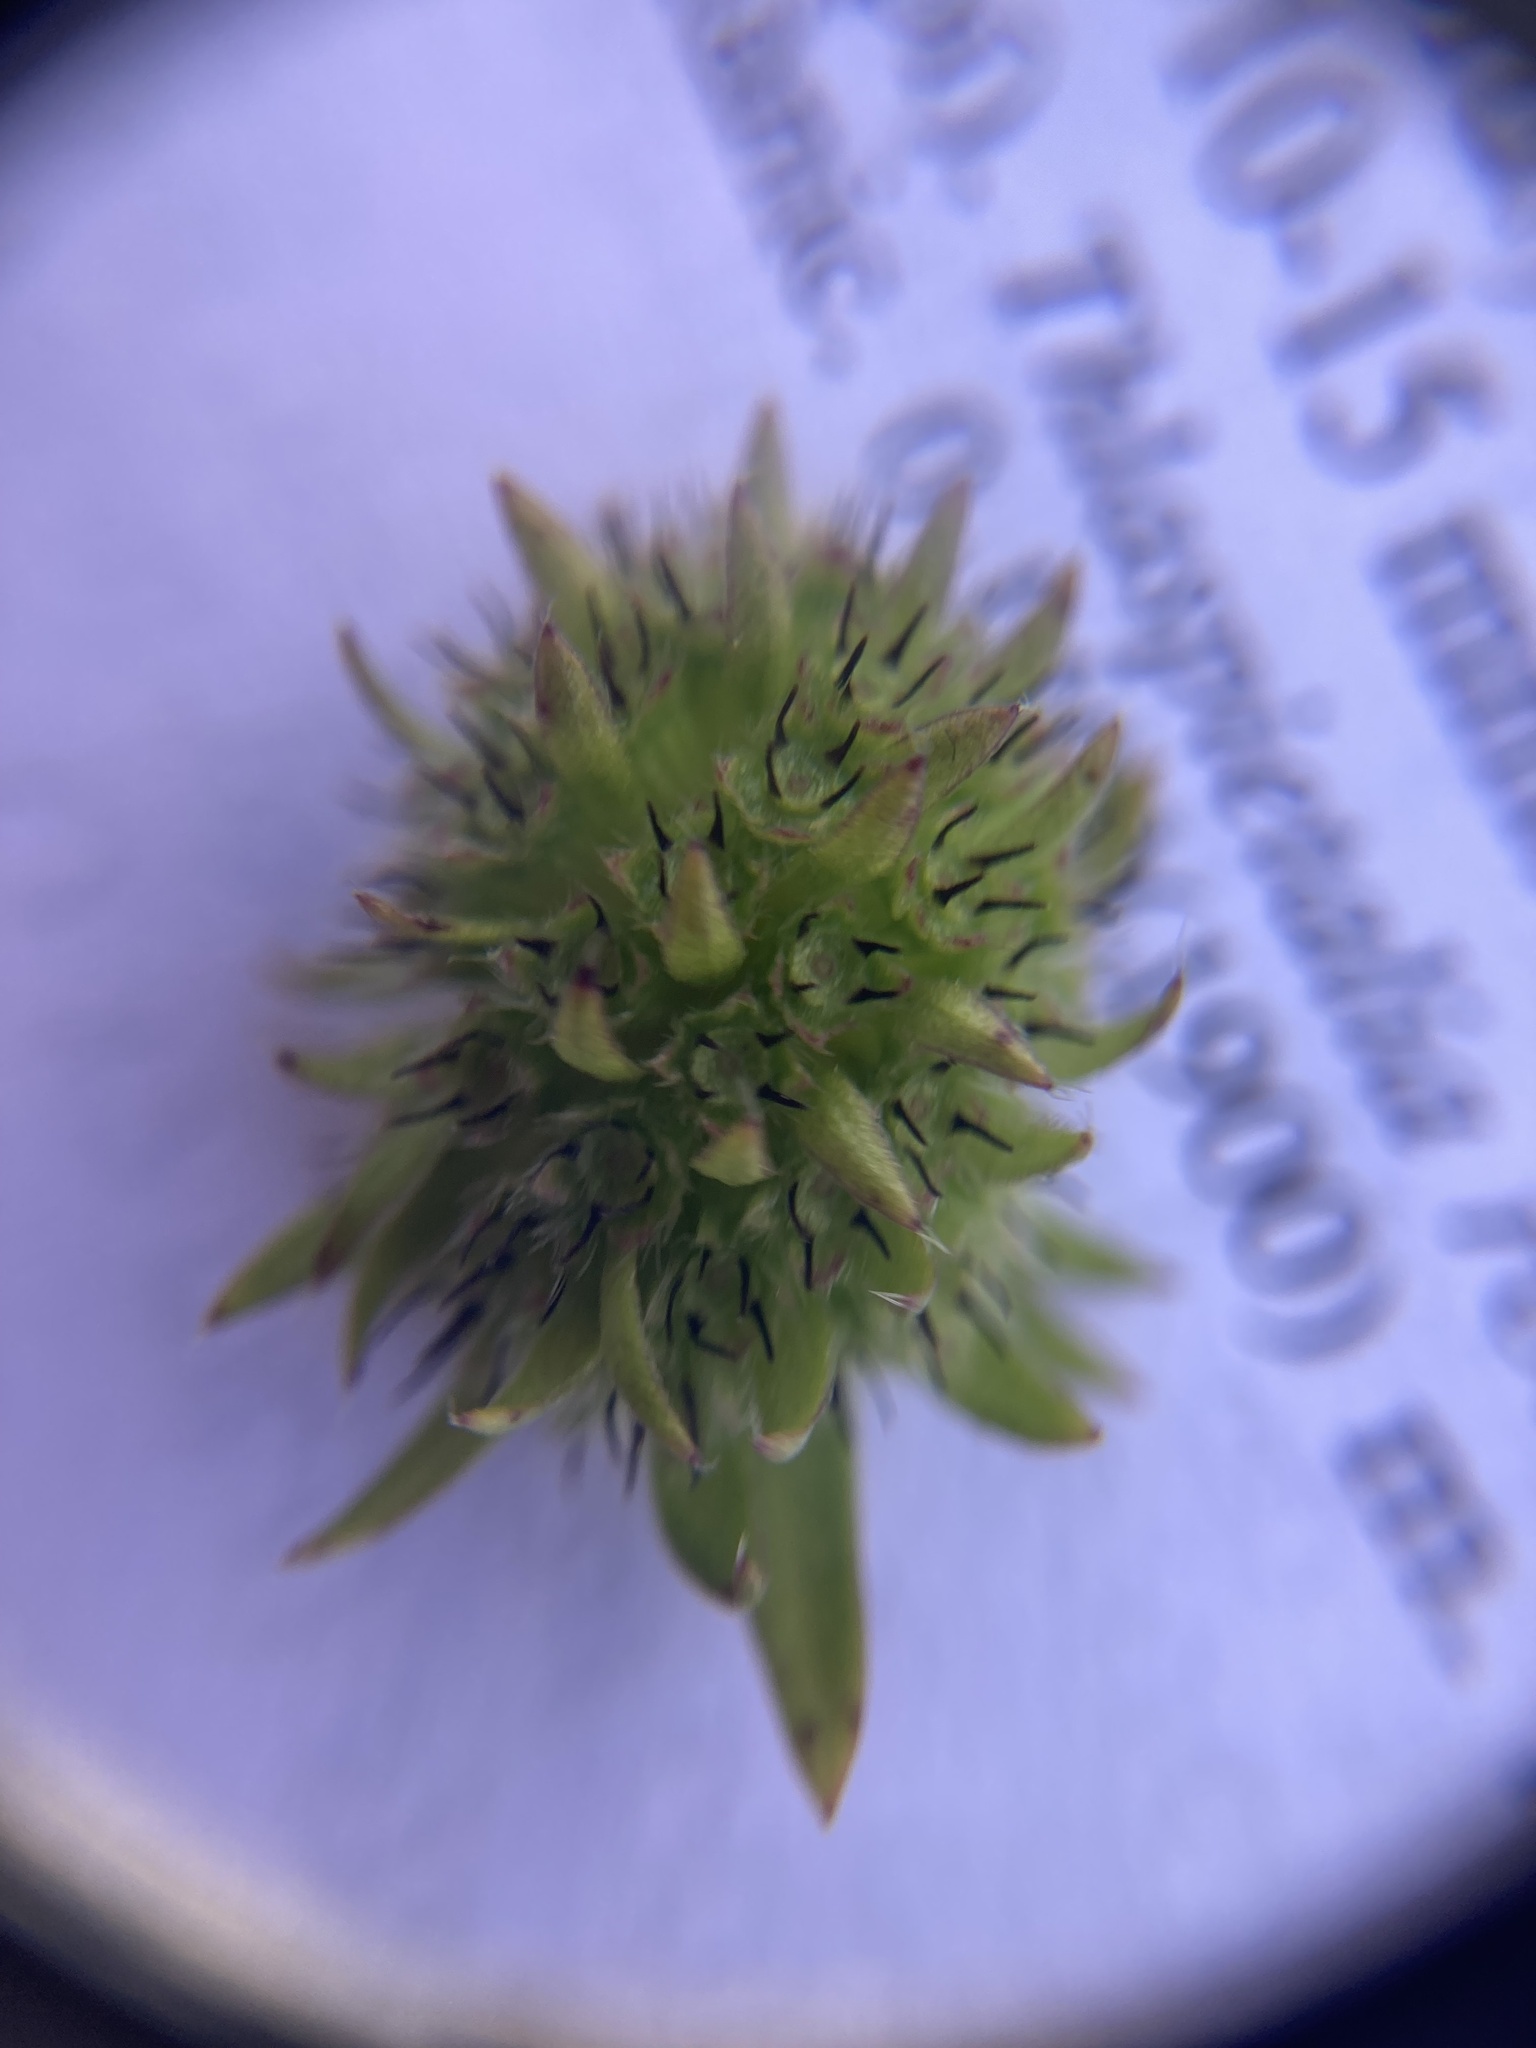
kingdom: Plantae
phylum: Tracheophyta
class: Magnoliopsida
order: Dipsacales
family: Caprifoliaceae
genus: Succisa
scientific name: Succisa pratensis
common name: Devil's-bit
